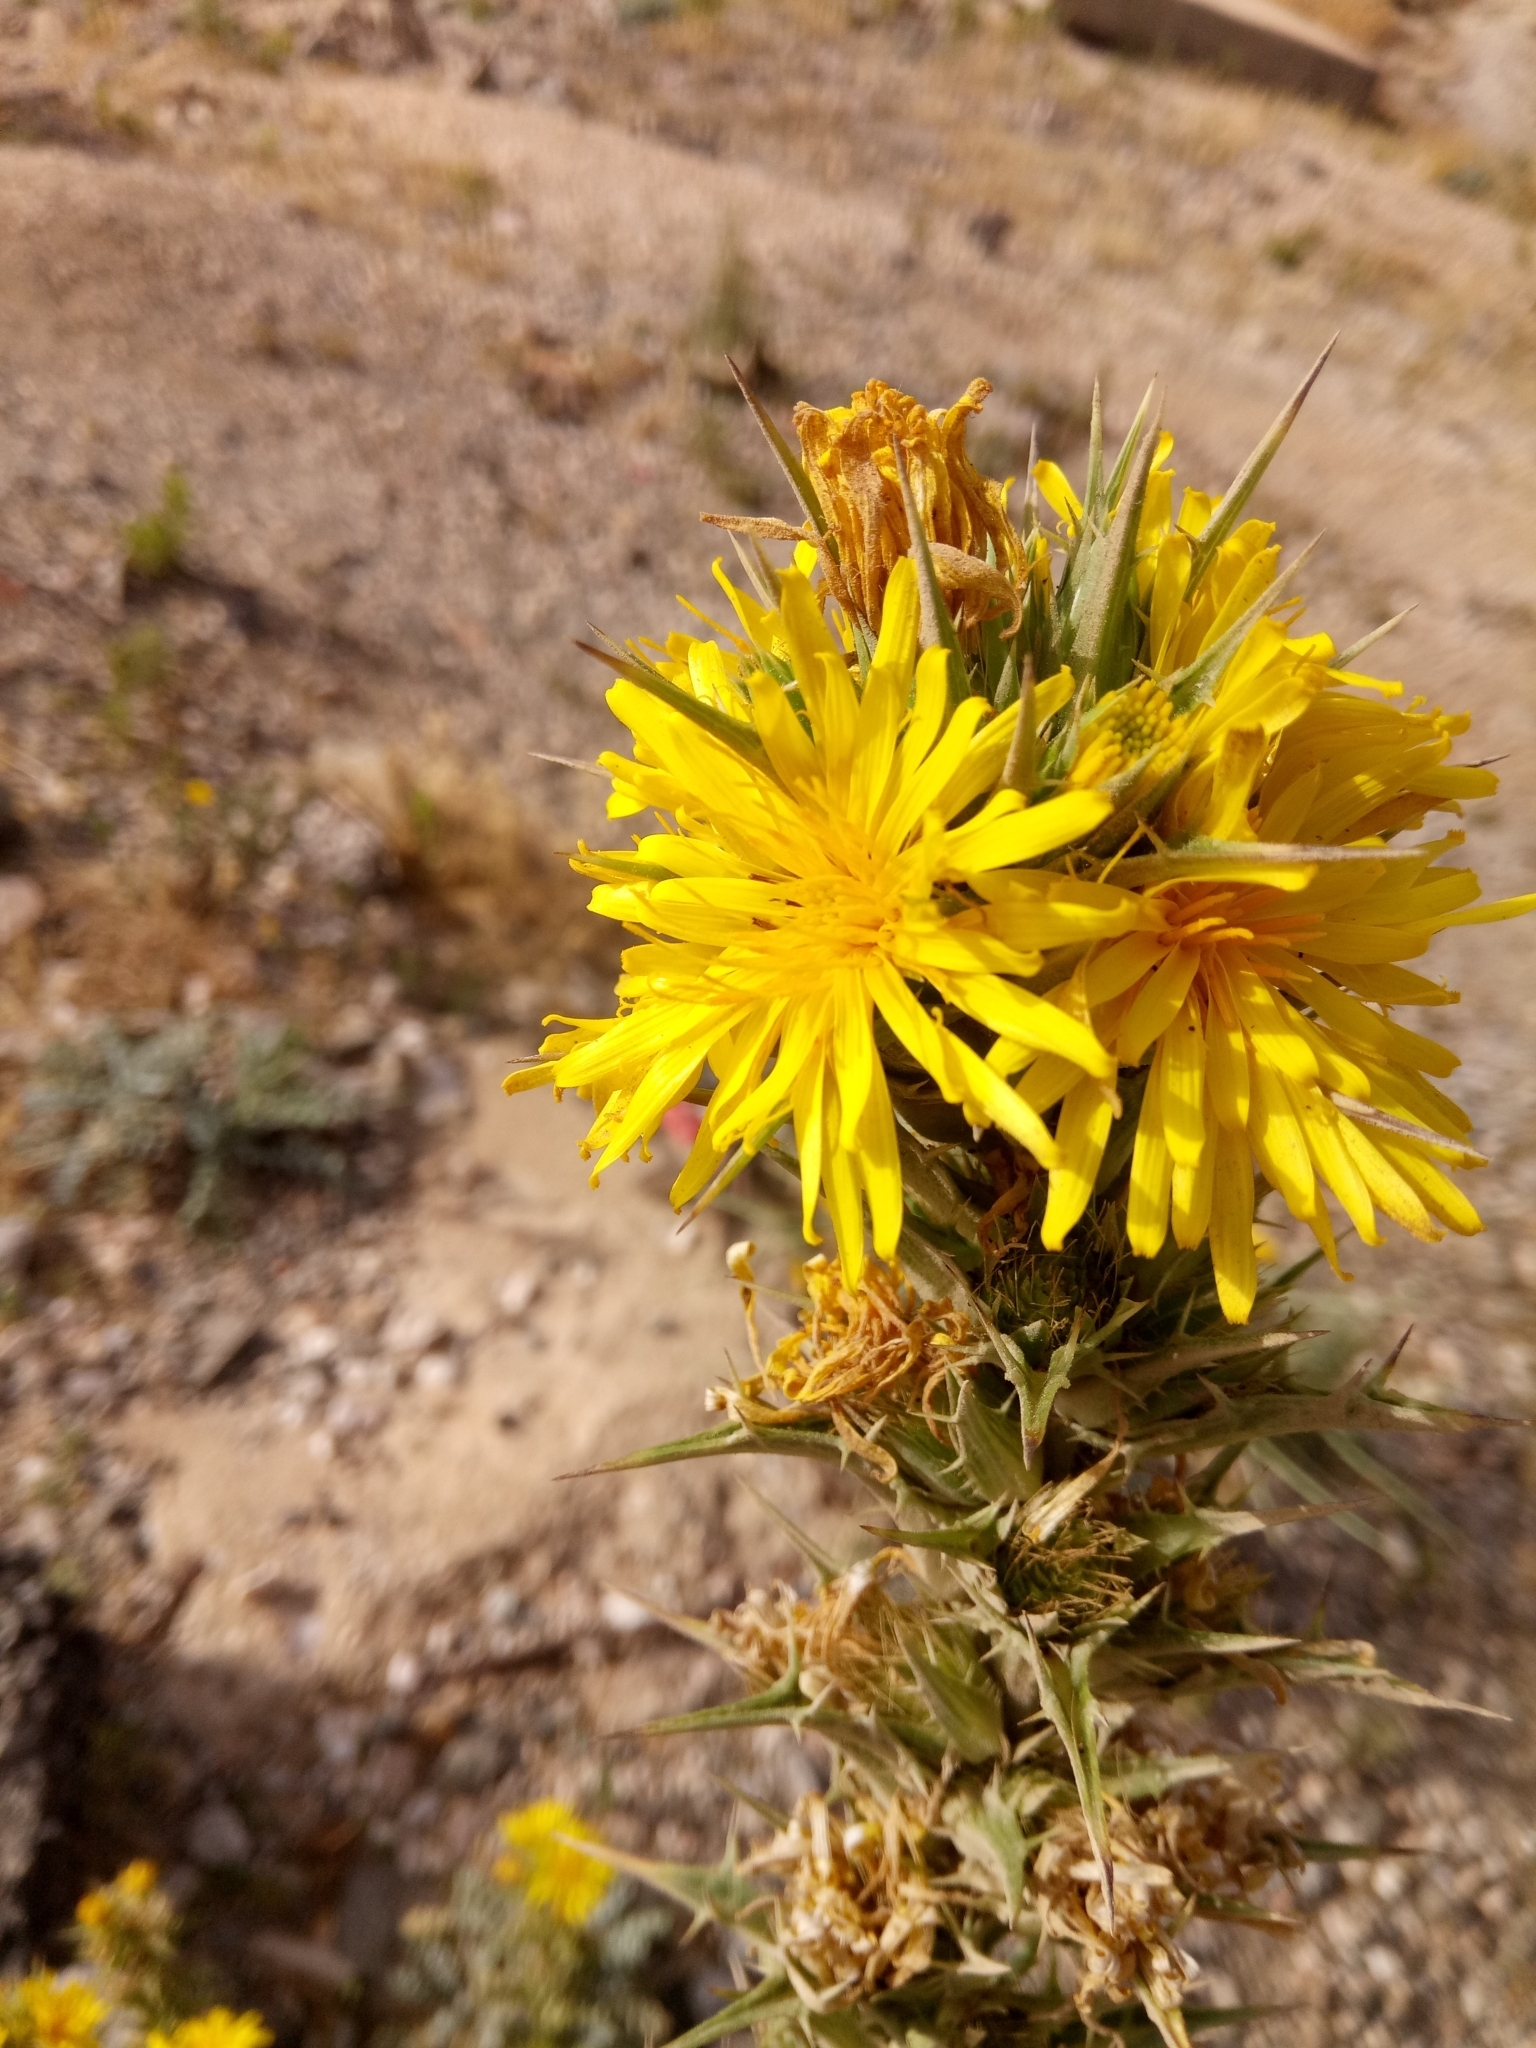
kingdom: Plantae
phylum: Tracheophyta
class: Magnoliopsida
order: Asterales
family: Asteraceae
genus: Scolymus
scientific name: Scolymus hispanicus
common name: Golden thistle
